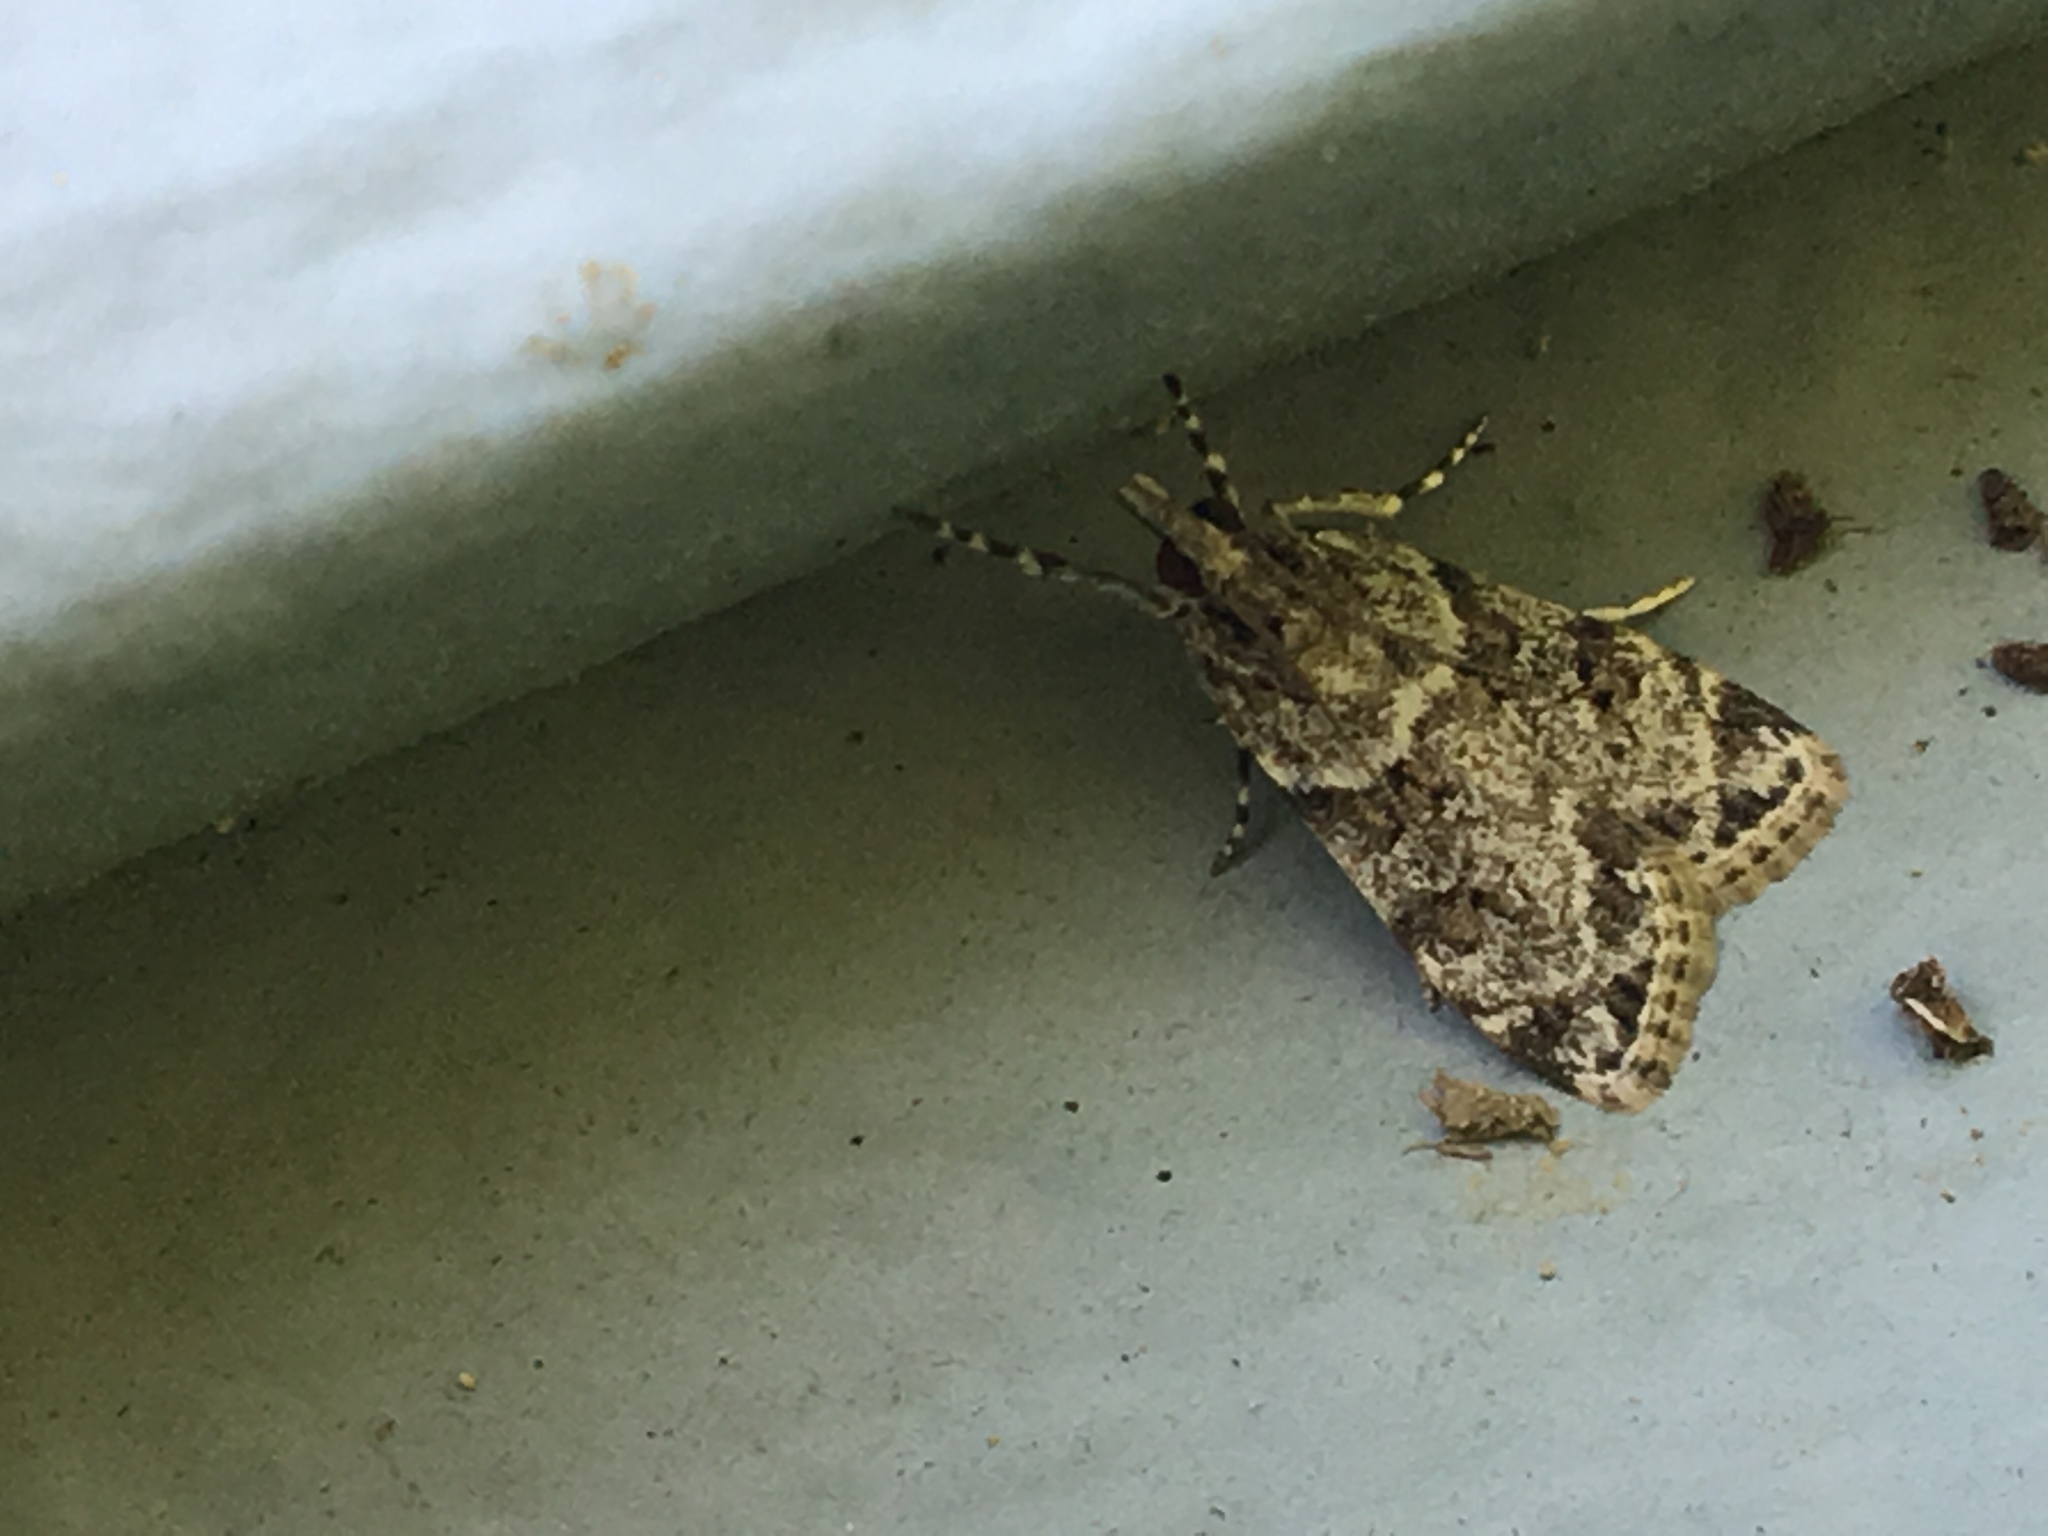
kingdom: Animalia
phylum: Arthropoda
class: Insecta
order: Lepidoptera
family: Crambidae
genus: Scoparia
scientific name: Scoparia biplagialis
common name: Double-striped scoparia moth
